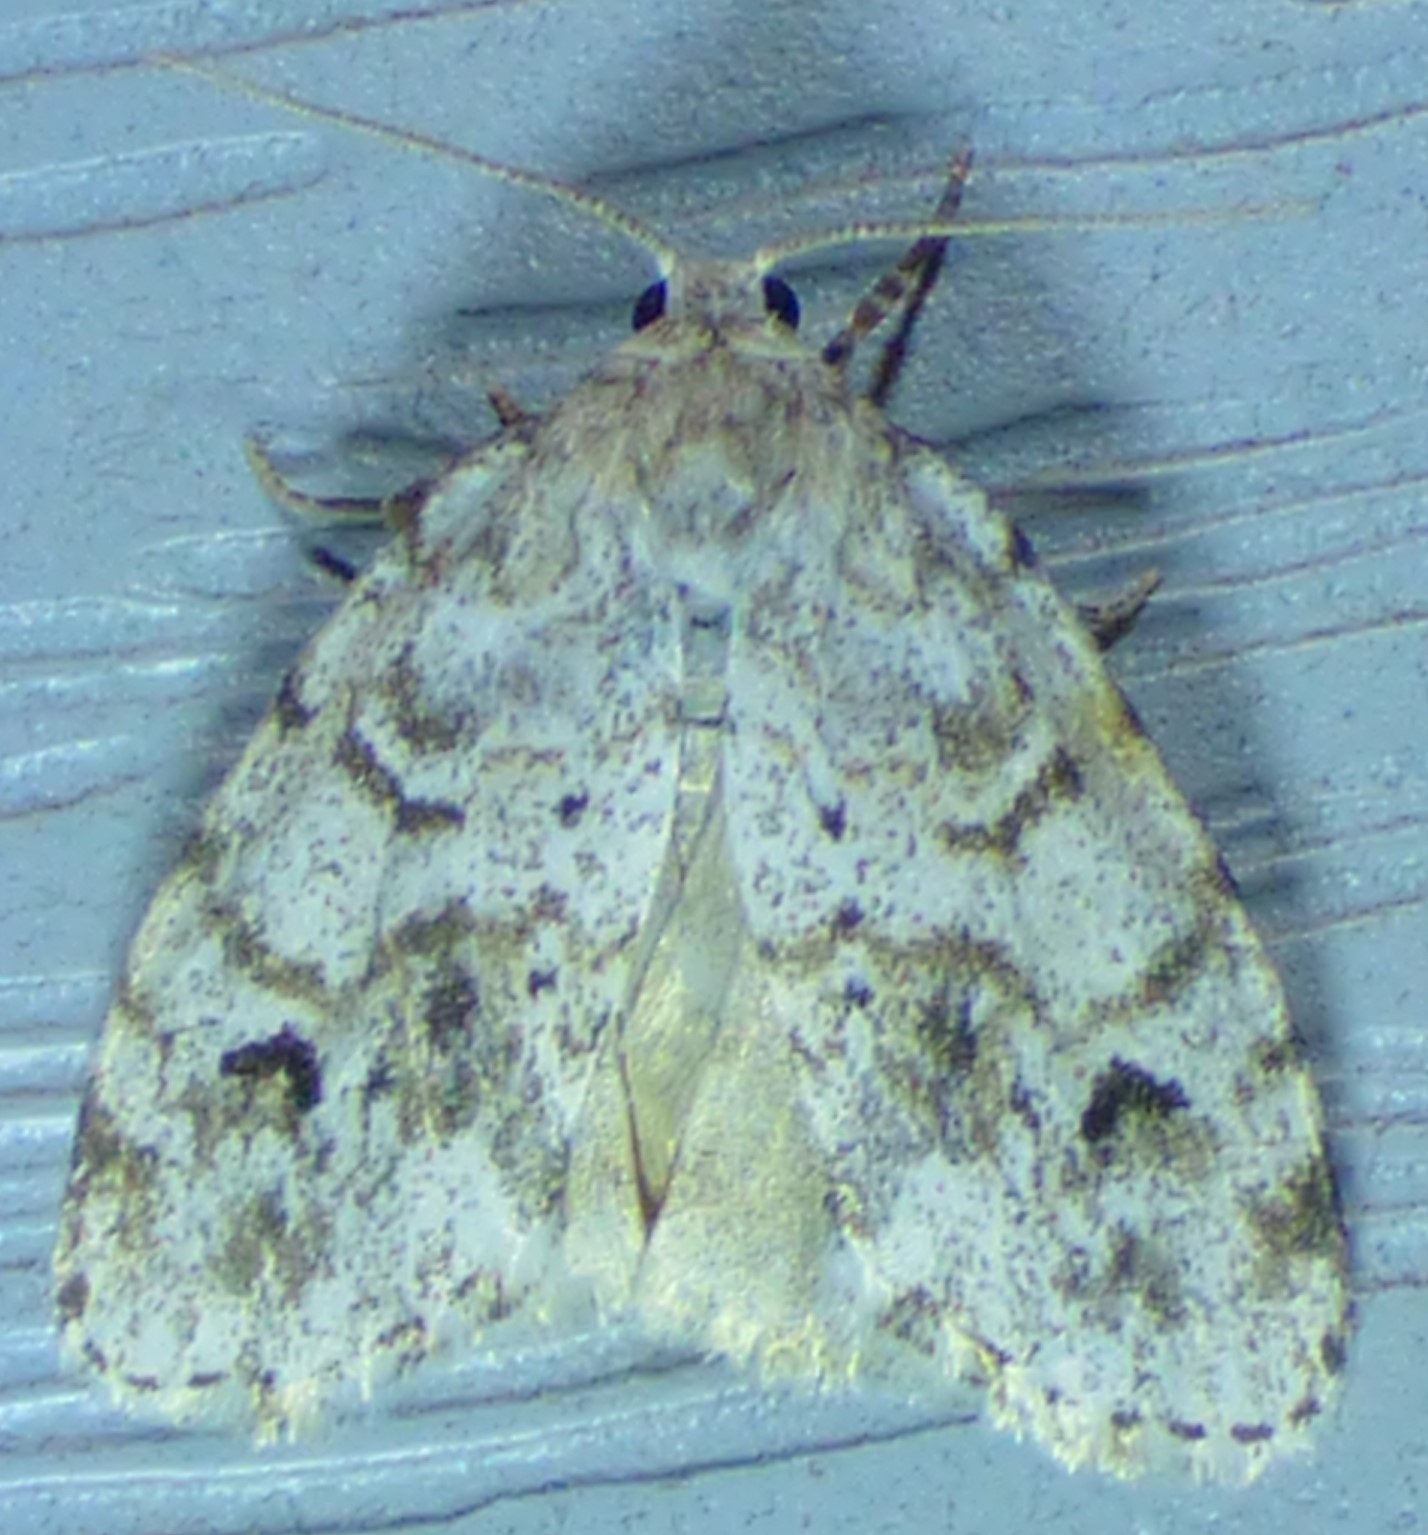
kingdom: Animalia
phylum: Arthropoda
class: Insecta
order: Lepidoptera
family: Erebidae
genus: Clemensia
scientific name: Clemensia albata
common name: Little white lichen moth
